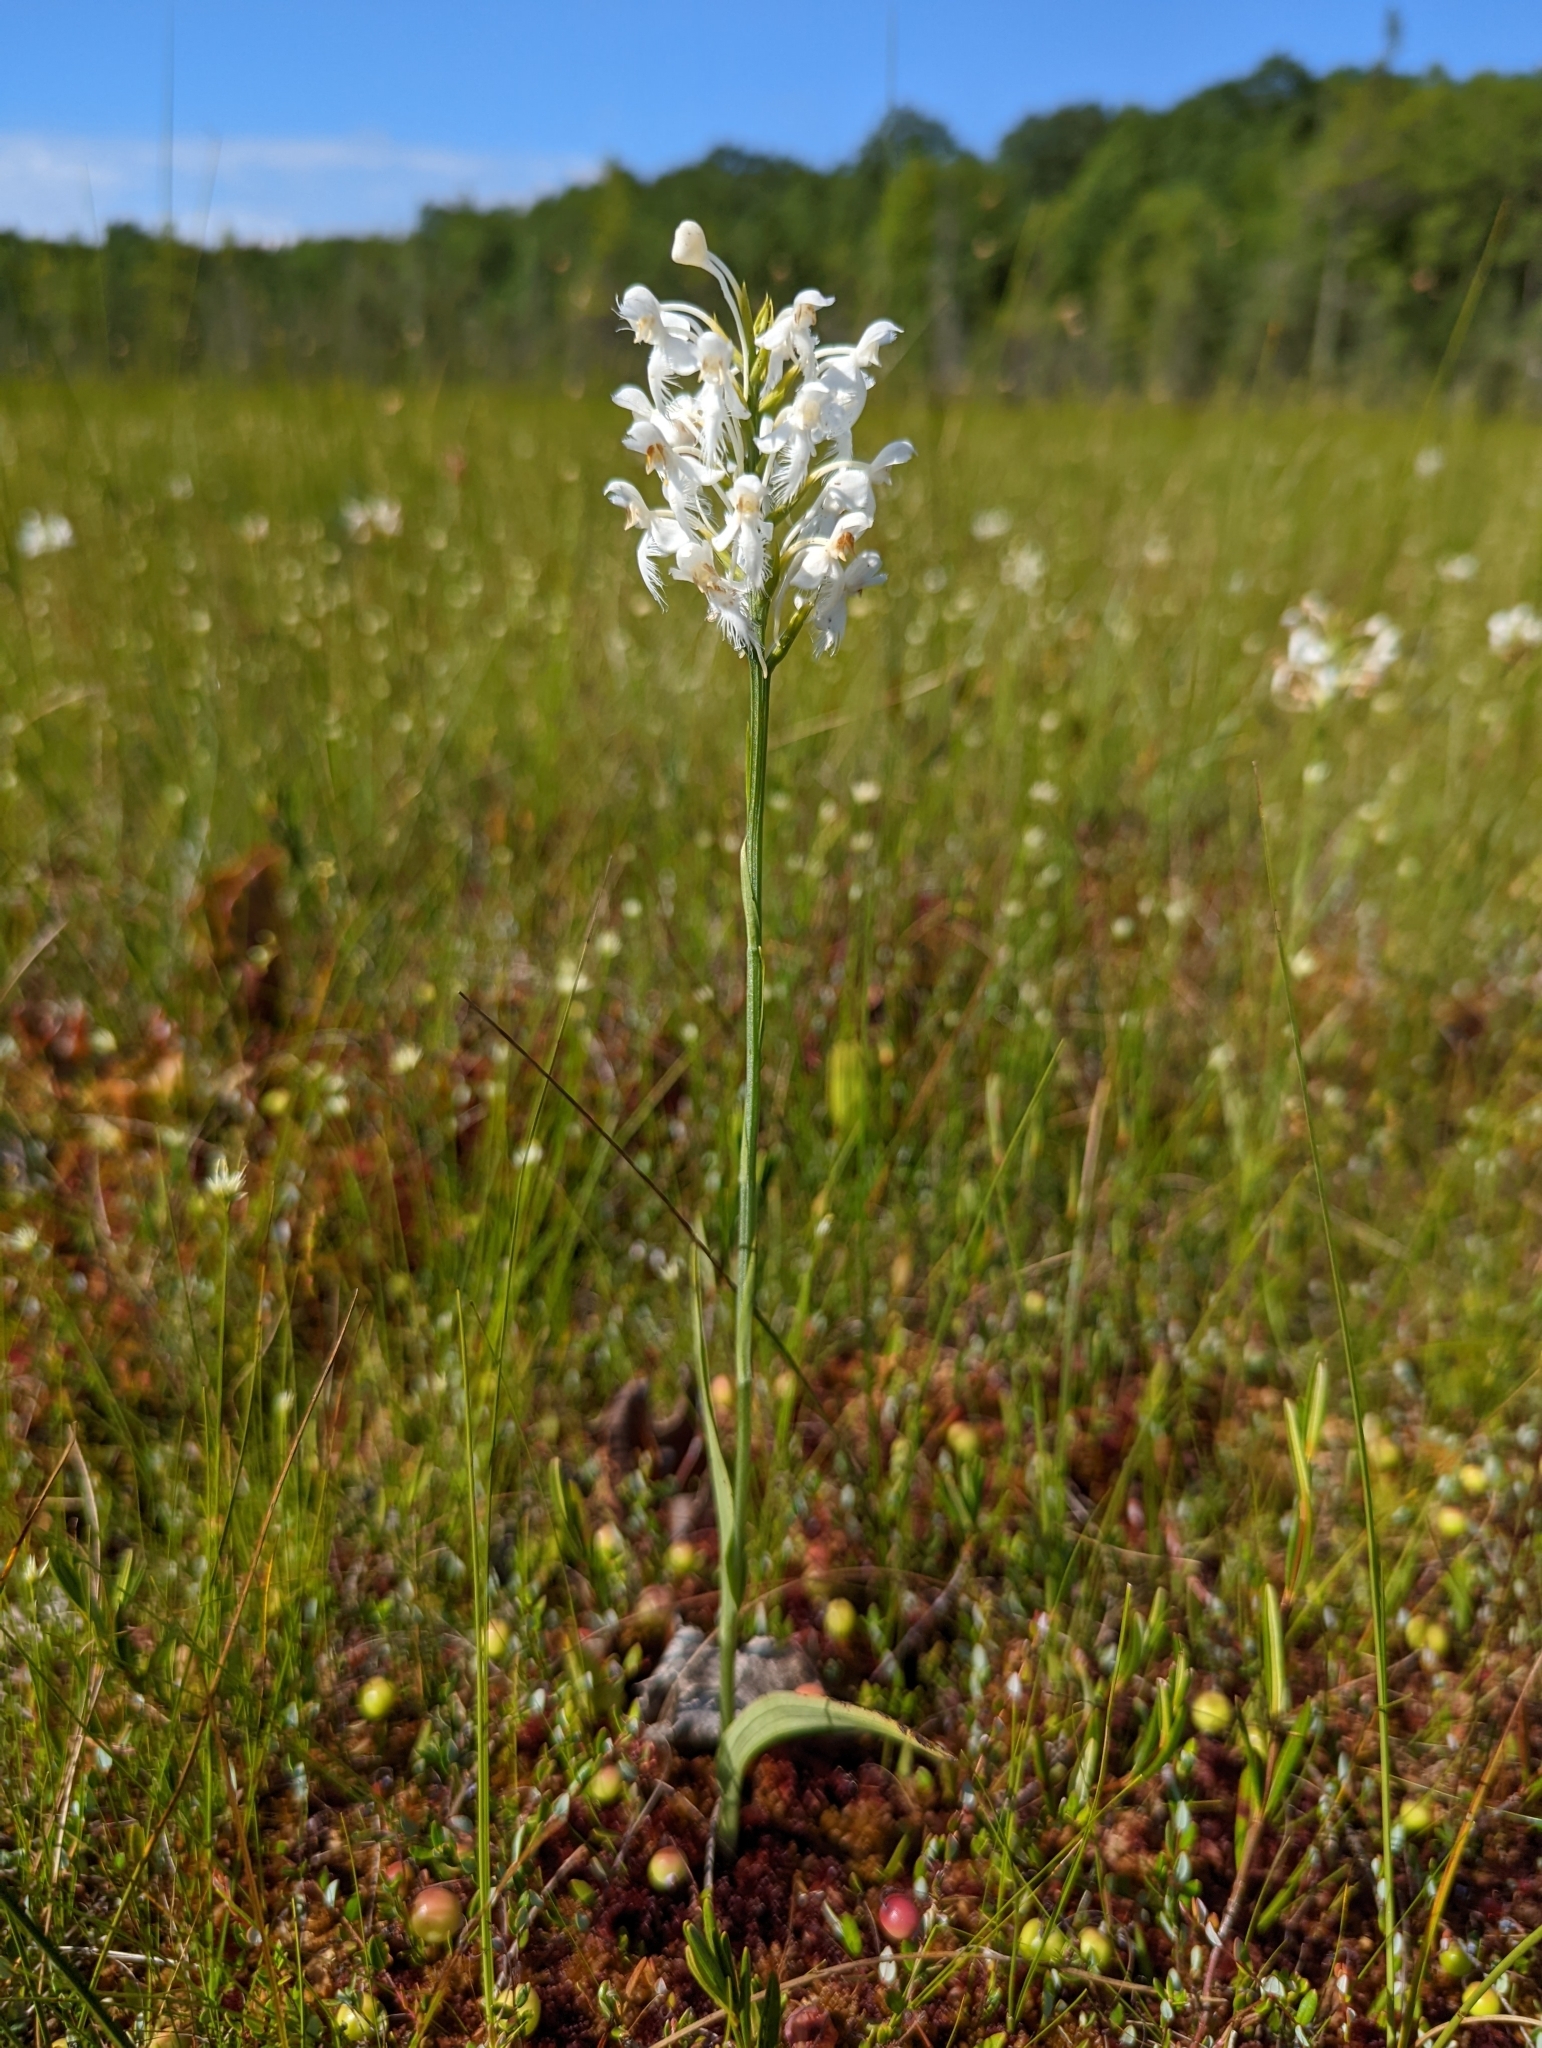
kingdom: Plantae
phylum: Tracheophyta
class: Liliopsida
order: Asparagales
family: Orchidaceae
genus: Platanthera
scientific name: Platanthera blephariglottis
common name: White fringed orchid
